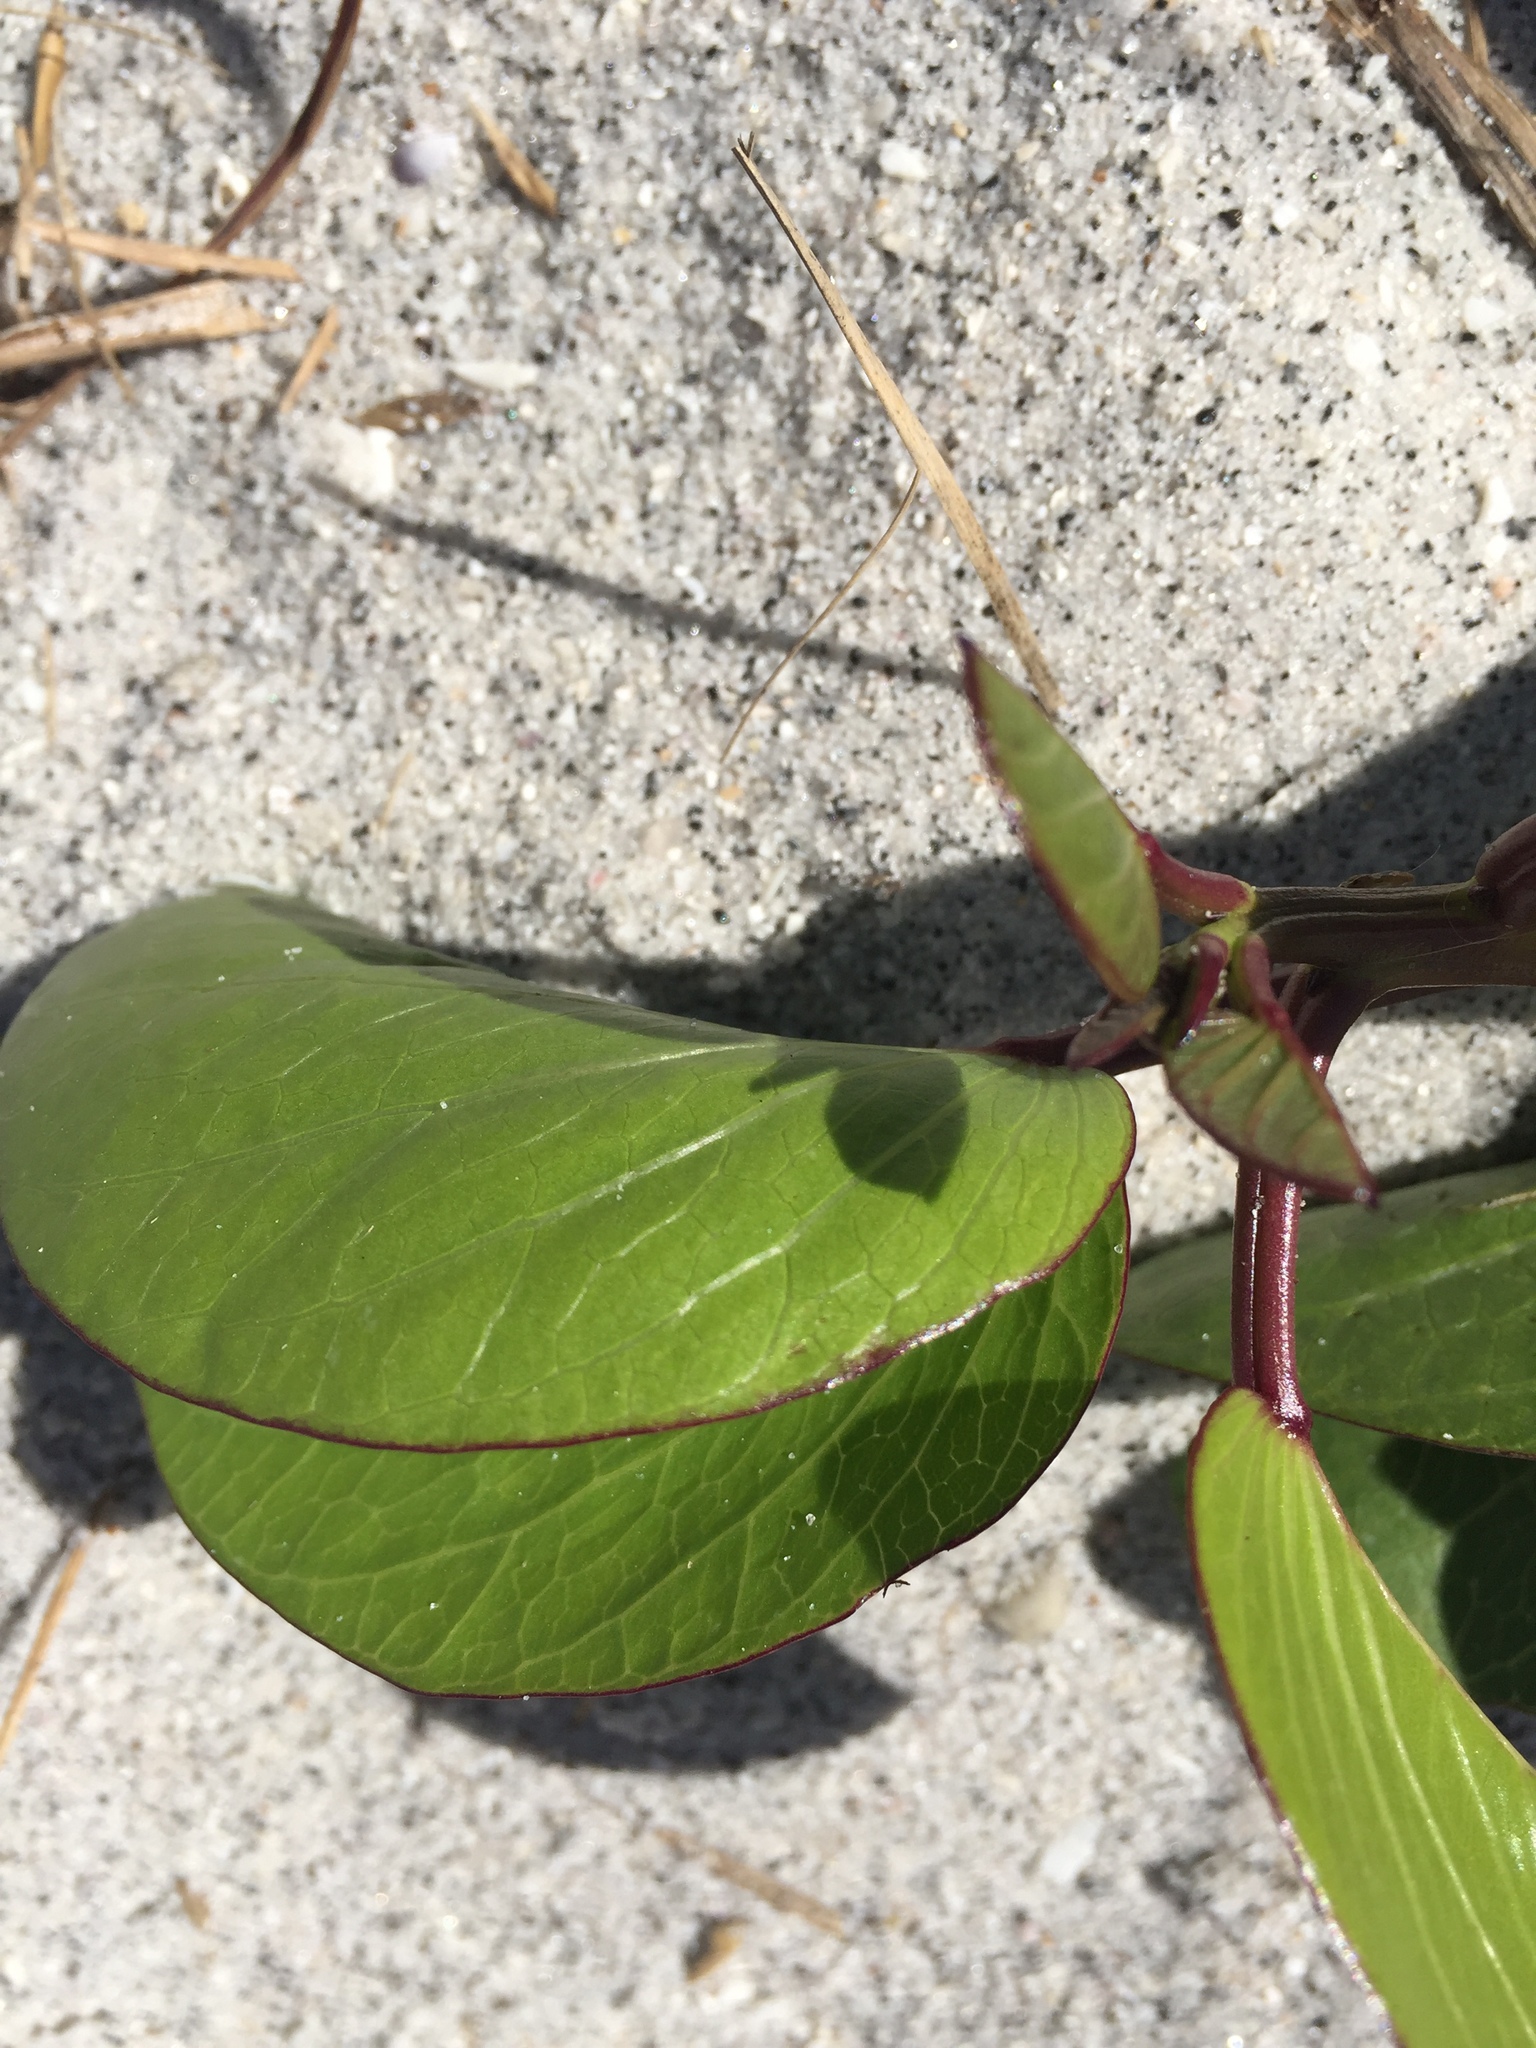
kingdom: Plantae
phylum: Tracheophyta
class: Magnoliopsida
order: Solanales
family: Convolvulaceae
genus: Ipomoea
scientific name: Ipomoea pes-caprae
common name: Beach morning glory
